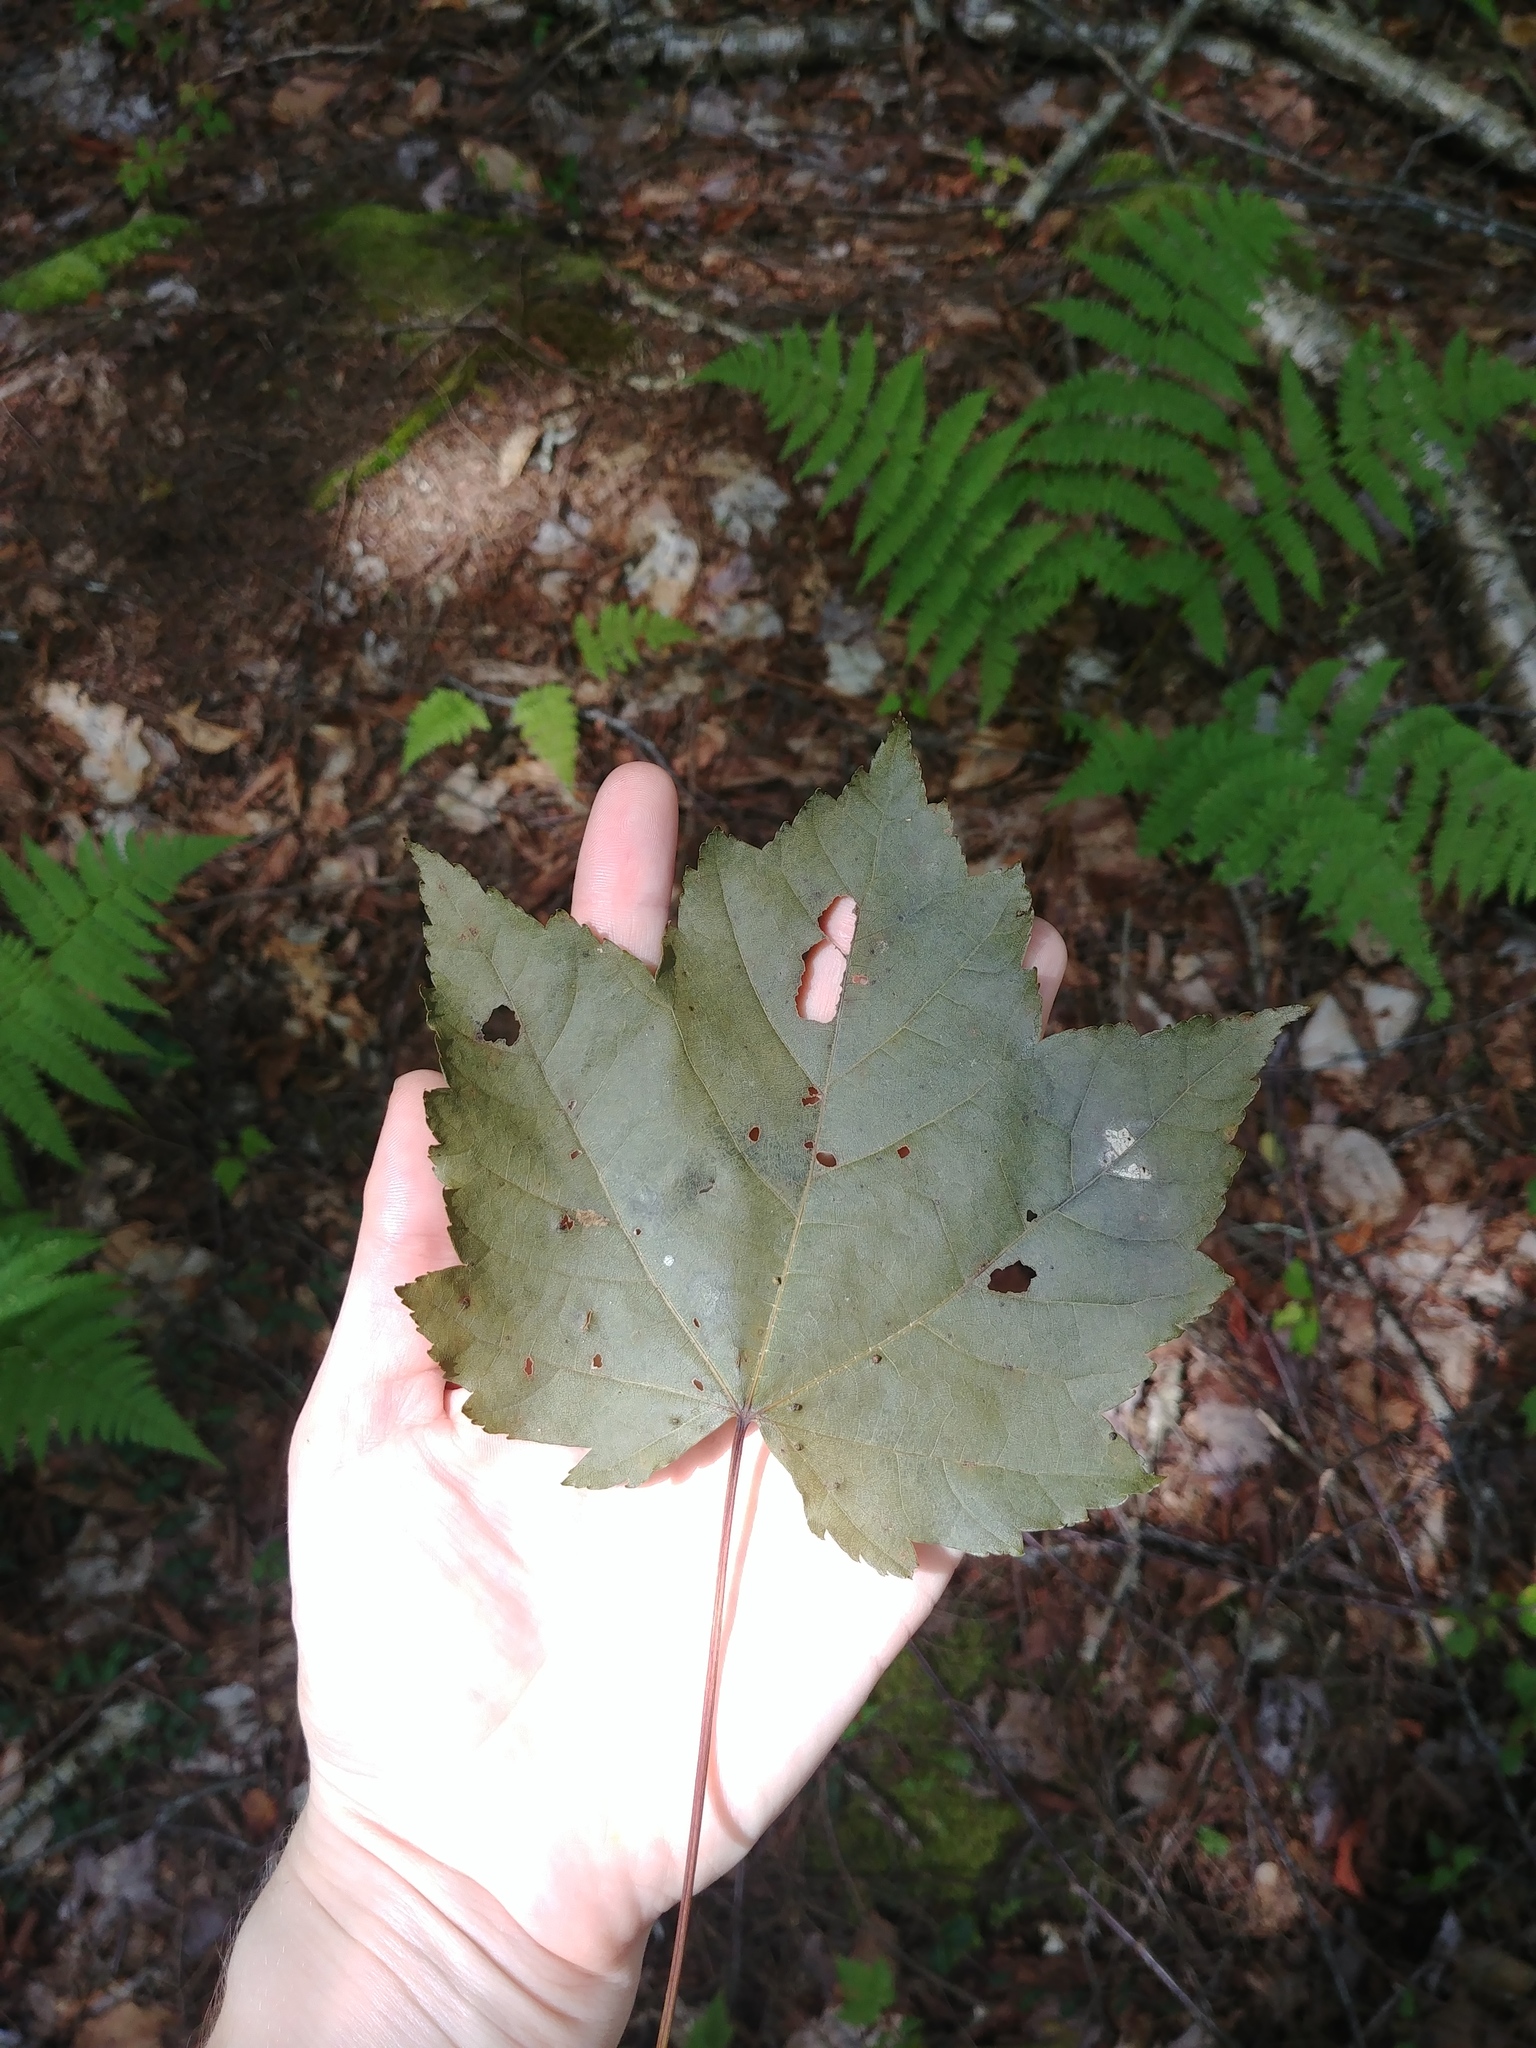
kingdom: Plantae
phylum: Tracheophyta
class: Magnoliopsida
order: Sapindales
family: Sapindaceae
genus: Acer
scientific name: Acer rubrum
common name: Red maple
